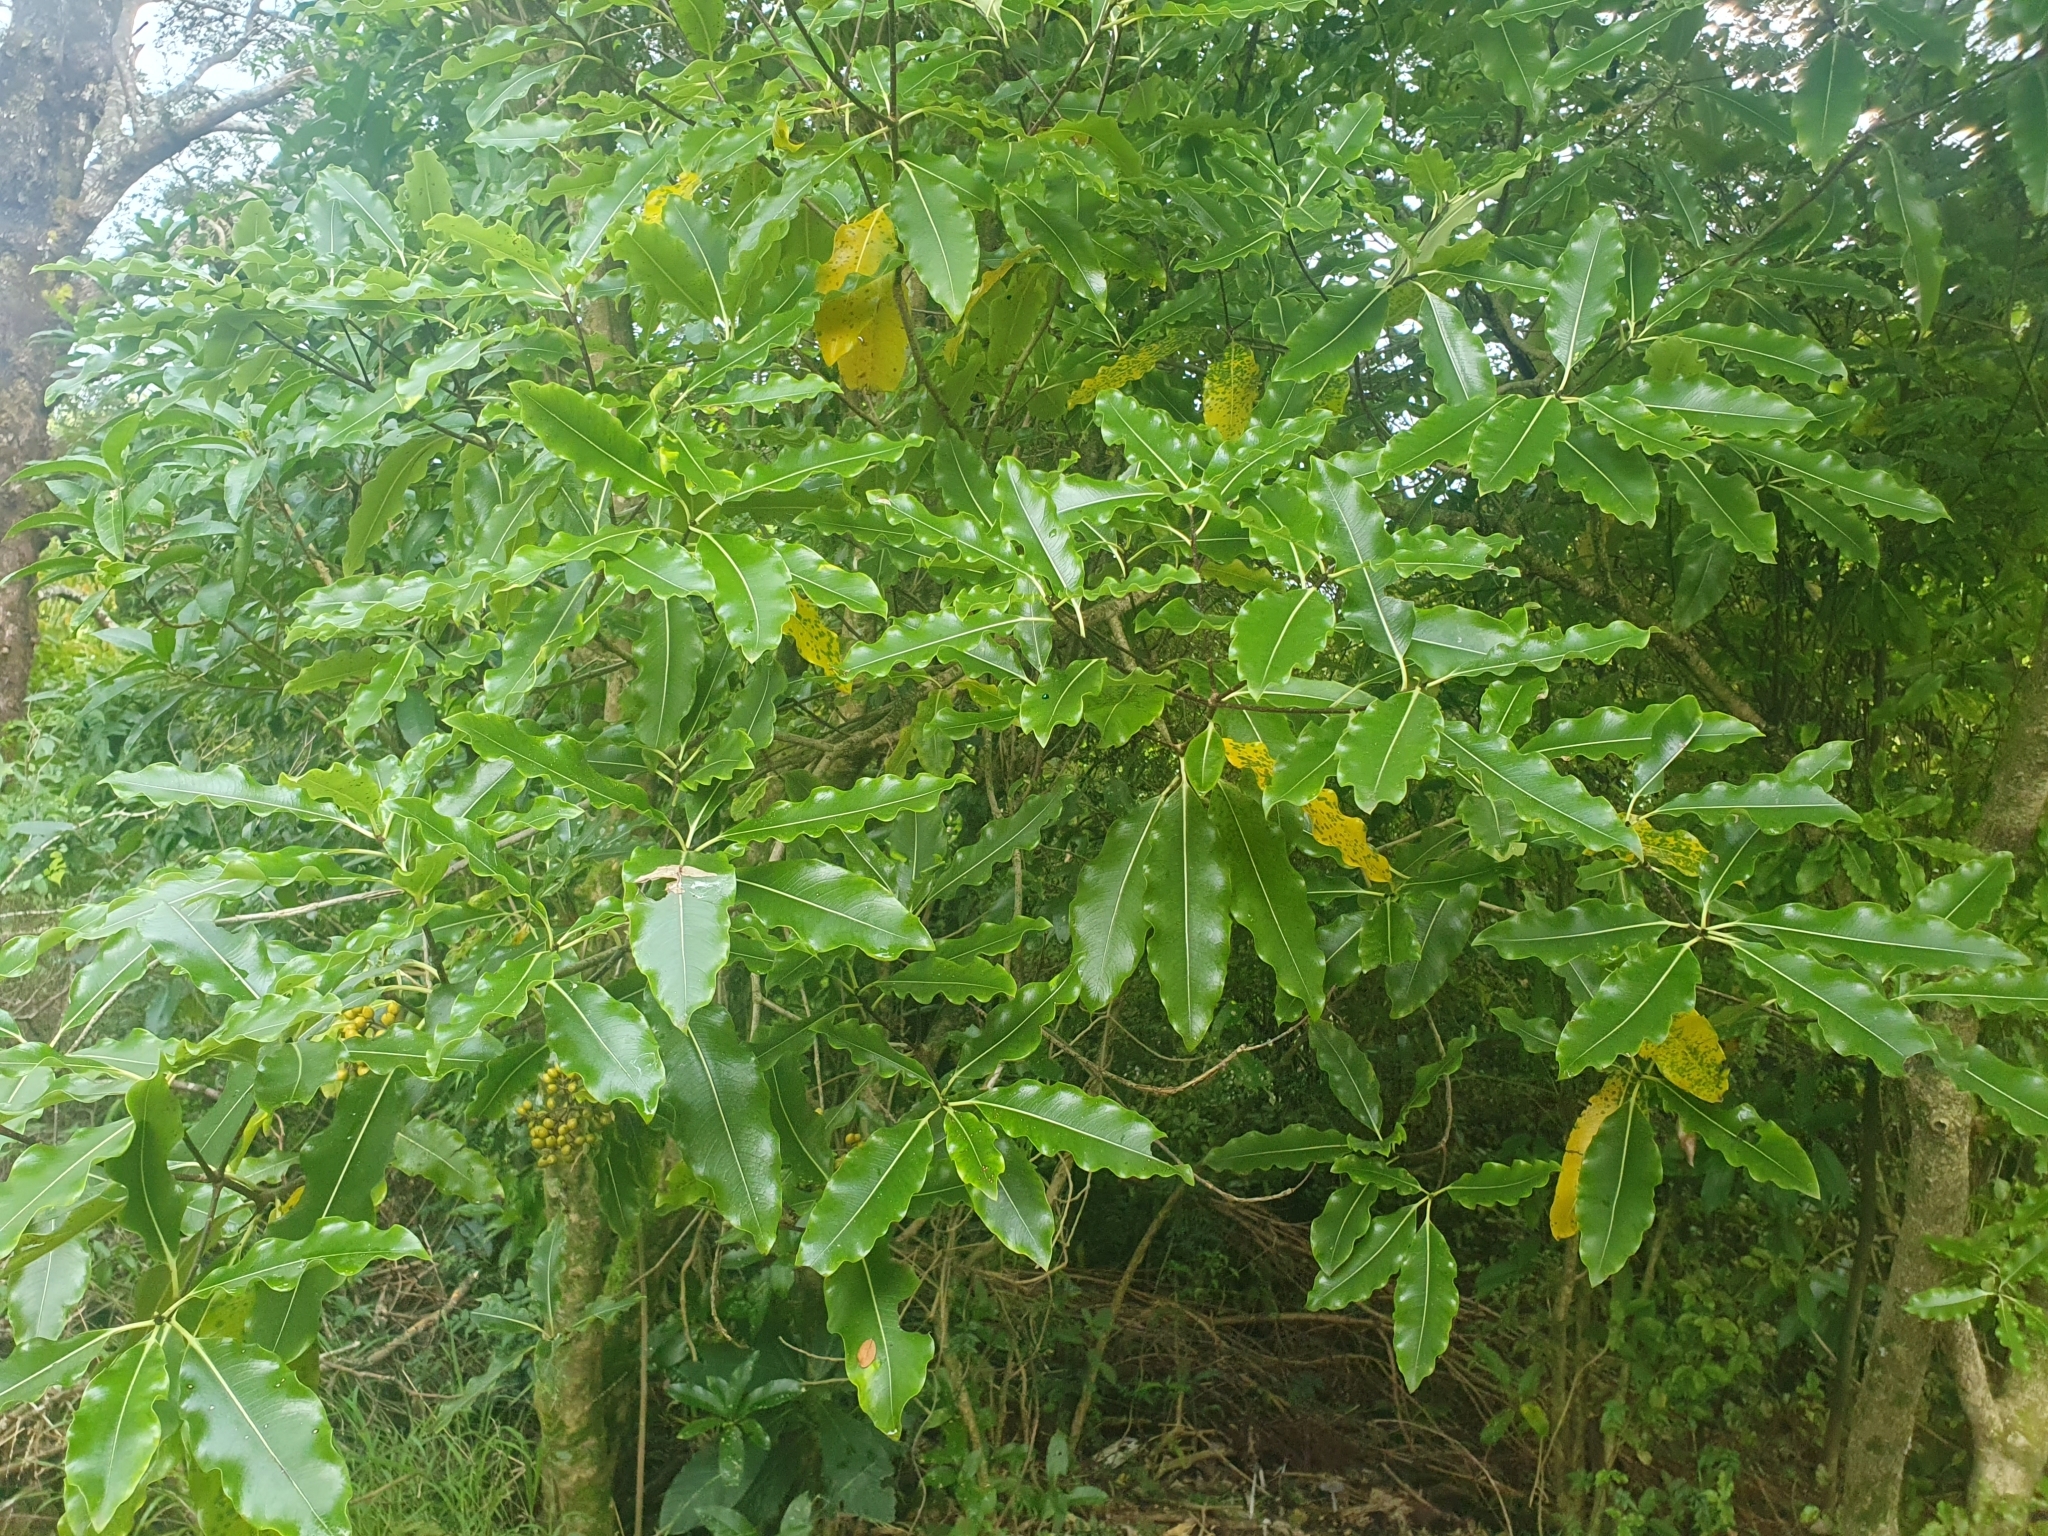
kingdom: Plantae
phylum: Tracheophyta
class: Magnoliopsida
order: Apiales
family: Pittosporaceae
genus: Pittosporum
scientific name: Pittosporum eugenioides
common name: Lemonwood
